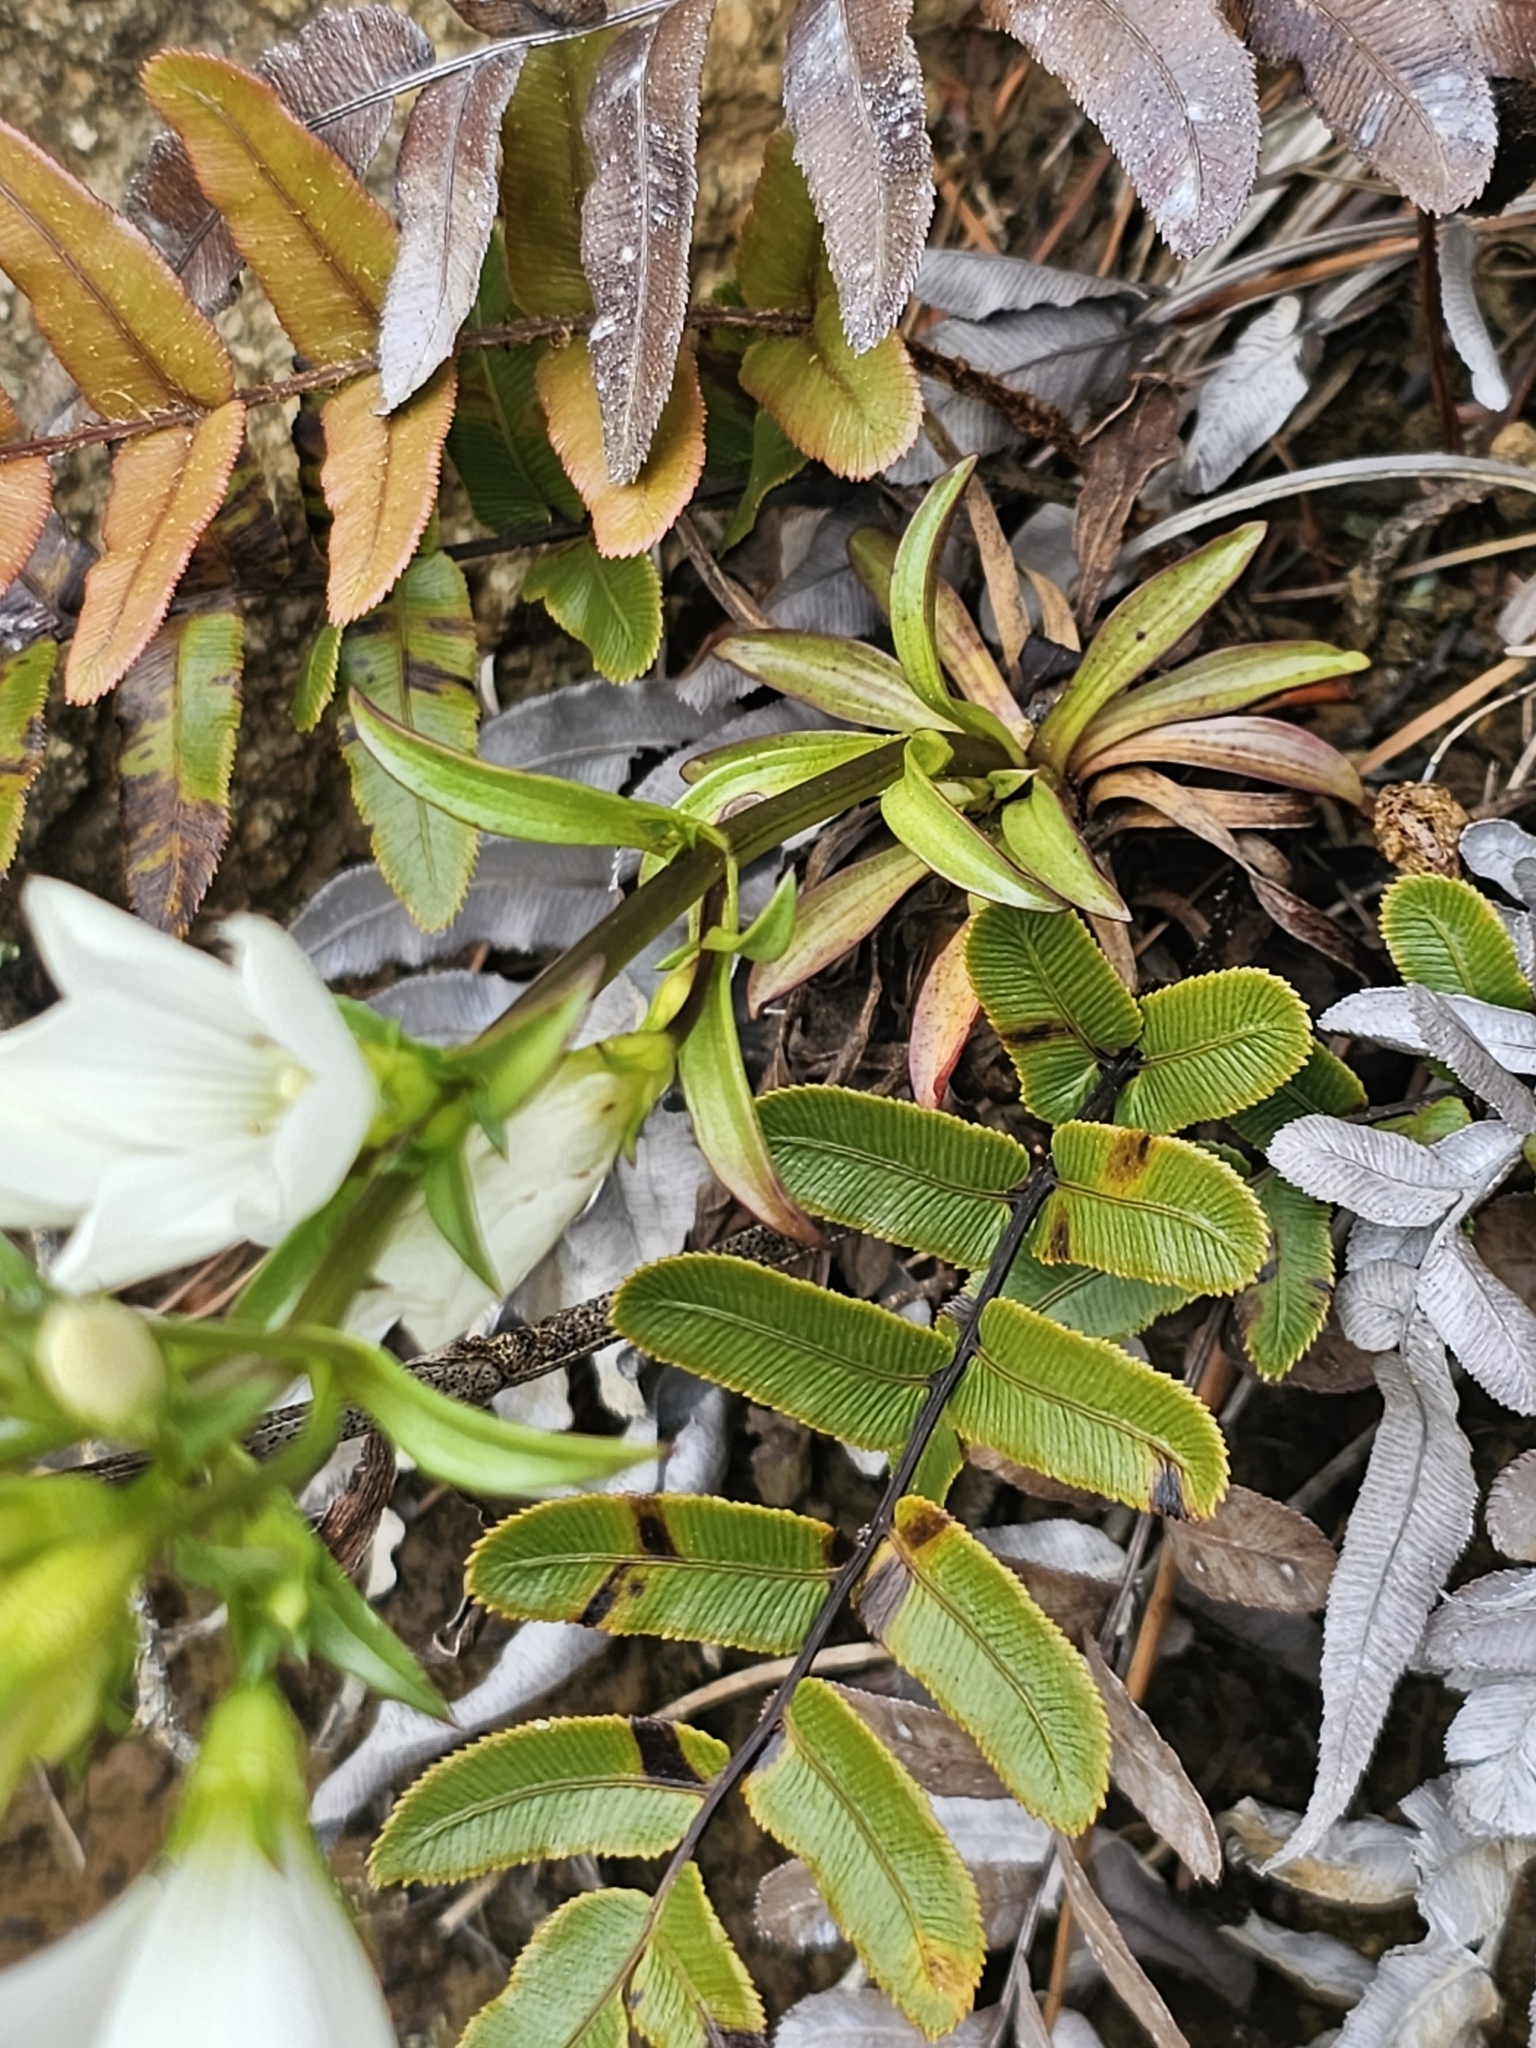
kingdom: Plantae
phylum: Tracheophyta
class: Magnoliopsida
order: Gentianales
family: Gentianaceae
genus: Gentianella
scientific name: Gentianella stellata
